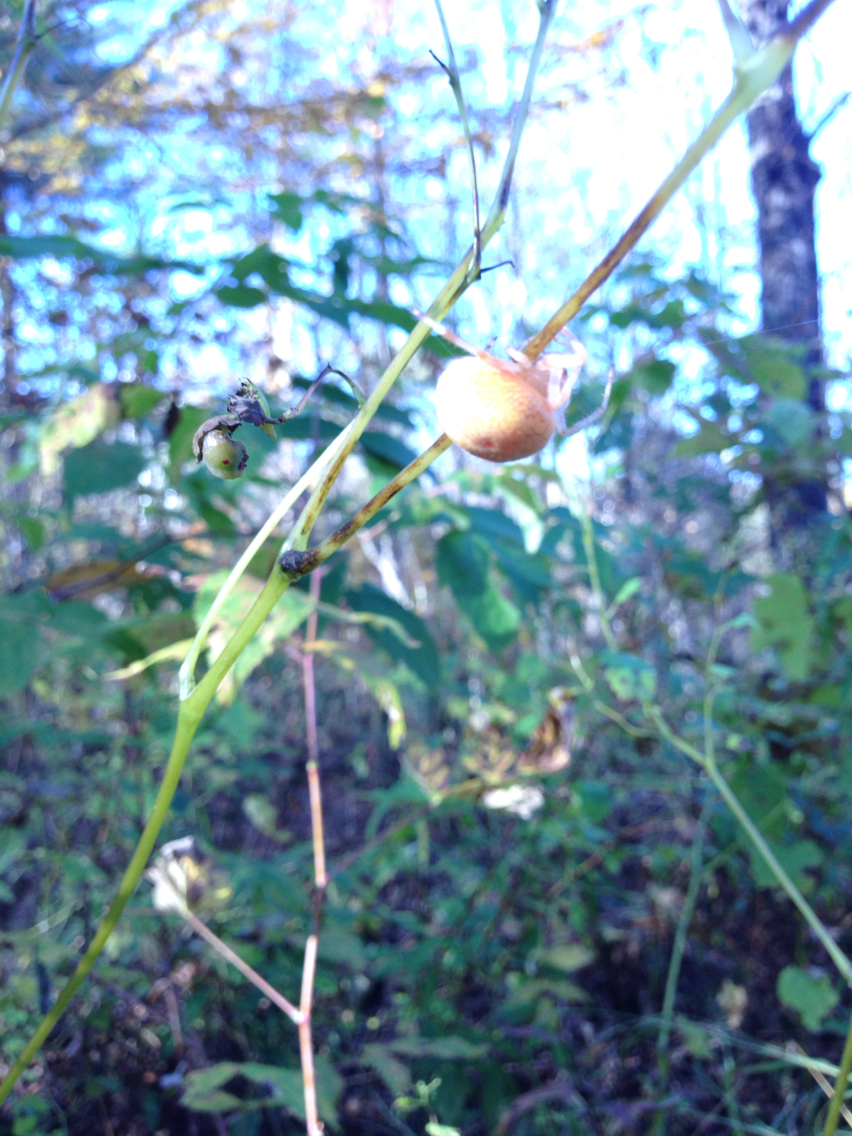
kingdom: Animalia
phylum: Arthropoda
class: Arachnida
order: Araneae
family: Araneidae
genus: Araneus
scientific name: Araneus marmoreus
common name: Marbled orbweaver
